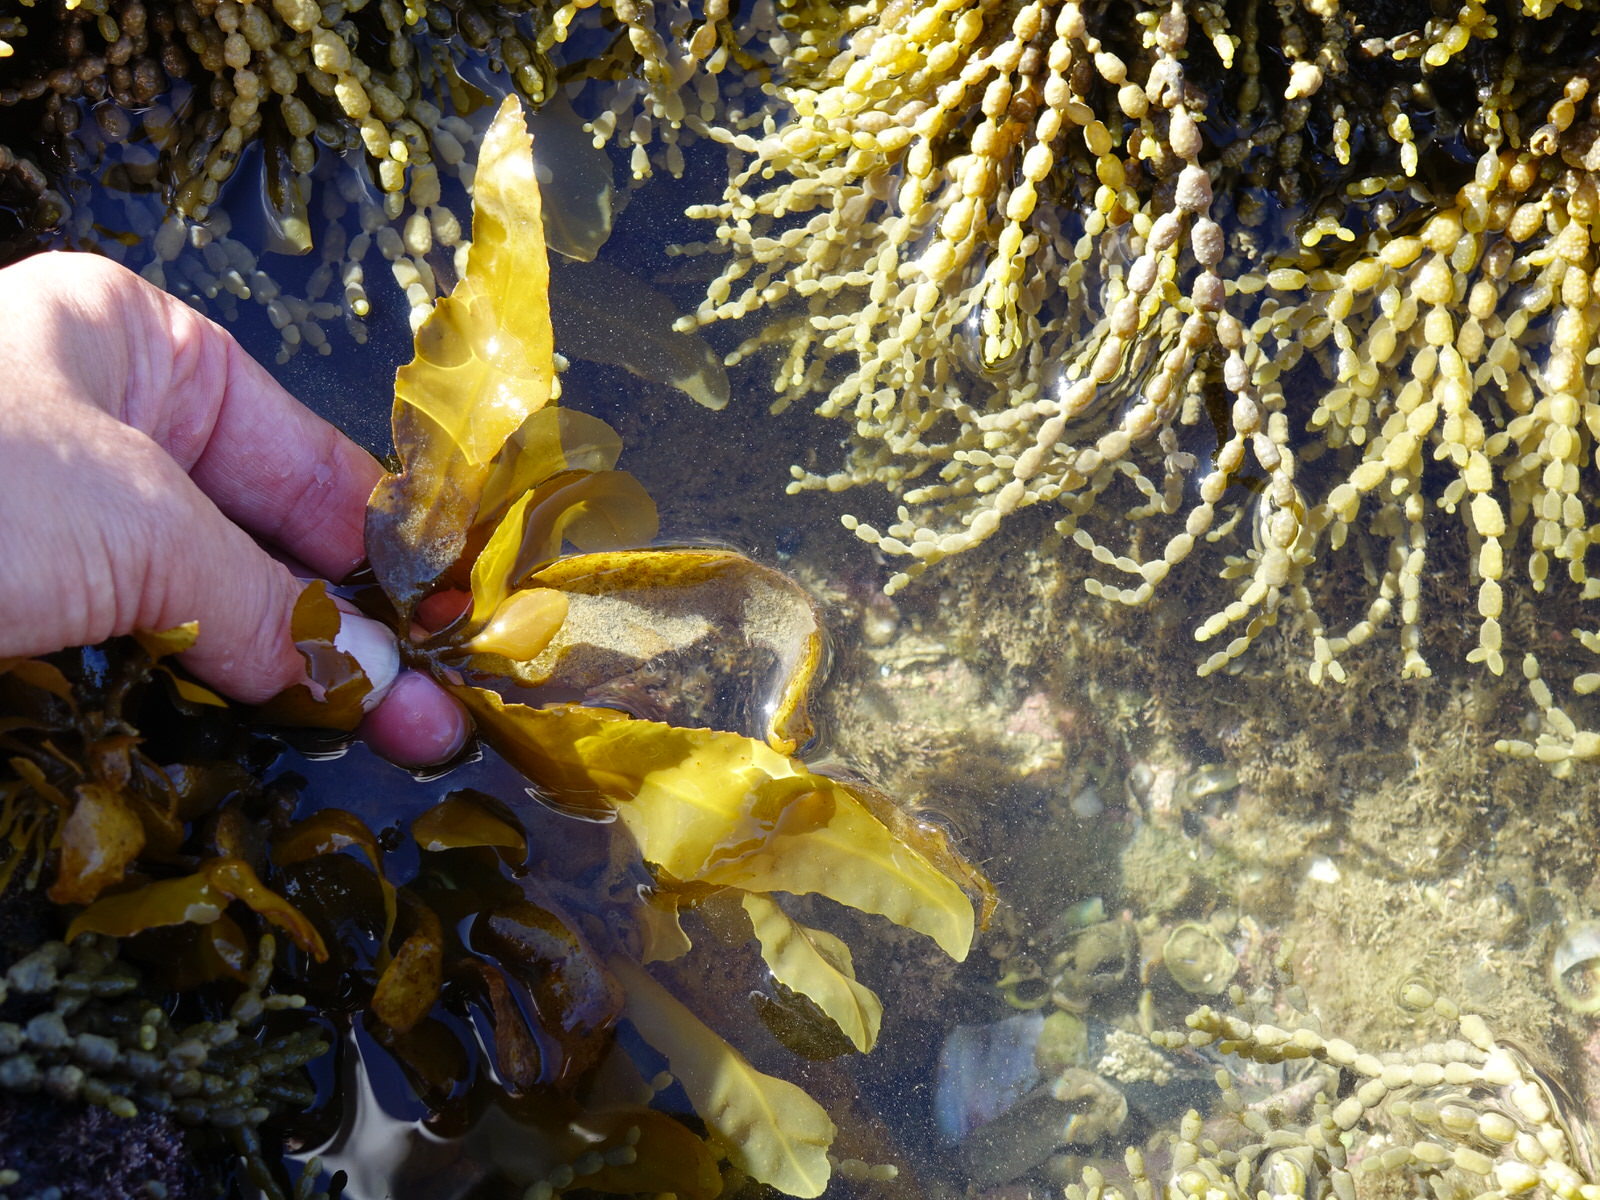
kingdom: Chromista
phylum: Ochrophyta
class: Phaeophyceae
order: Fucales
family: Sargassaceae
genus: Sargassum
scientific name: Sargassum sinclairii
